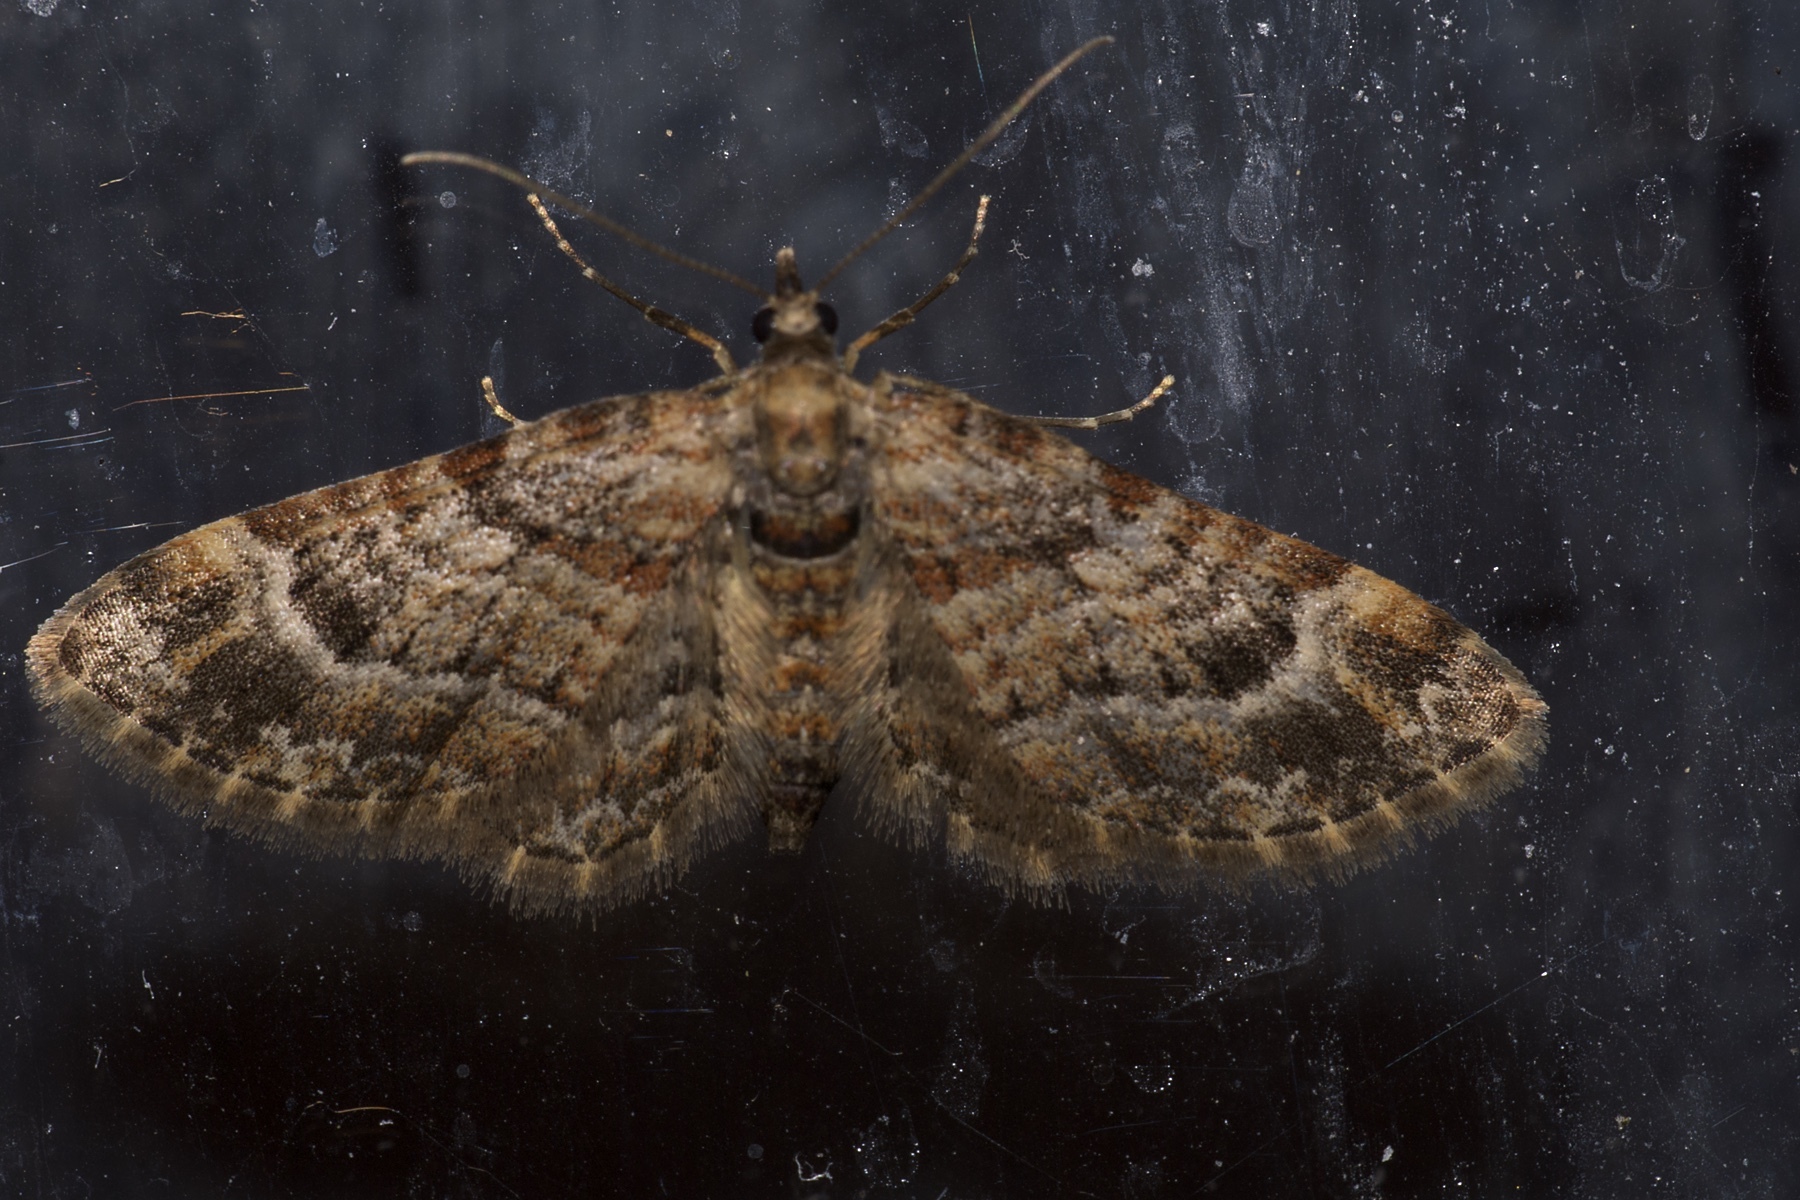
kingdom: Animalia
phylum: Arthropoda
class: Insecta
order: Lepidoptera
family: Geometridae
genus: Gymnoscelis
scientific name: Gymnoscelis rufifasciata
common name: Double-striped pug
